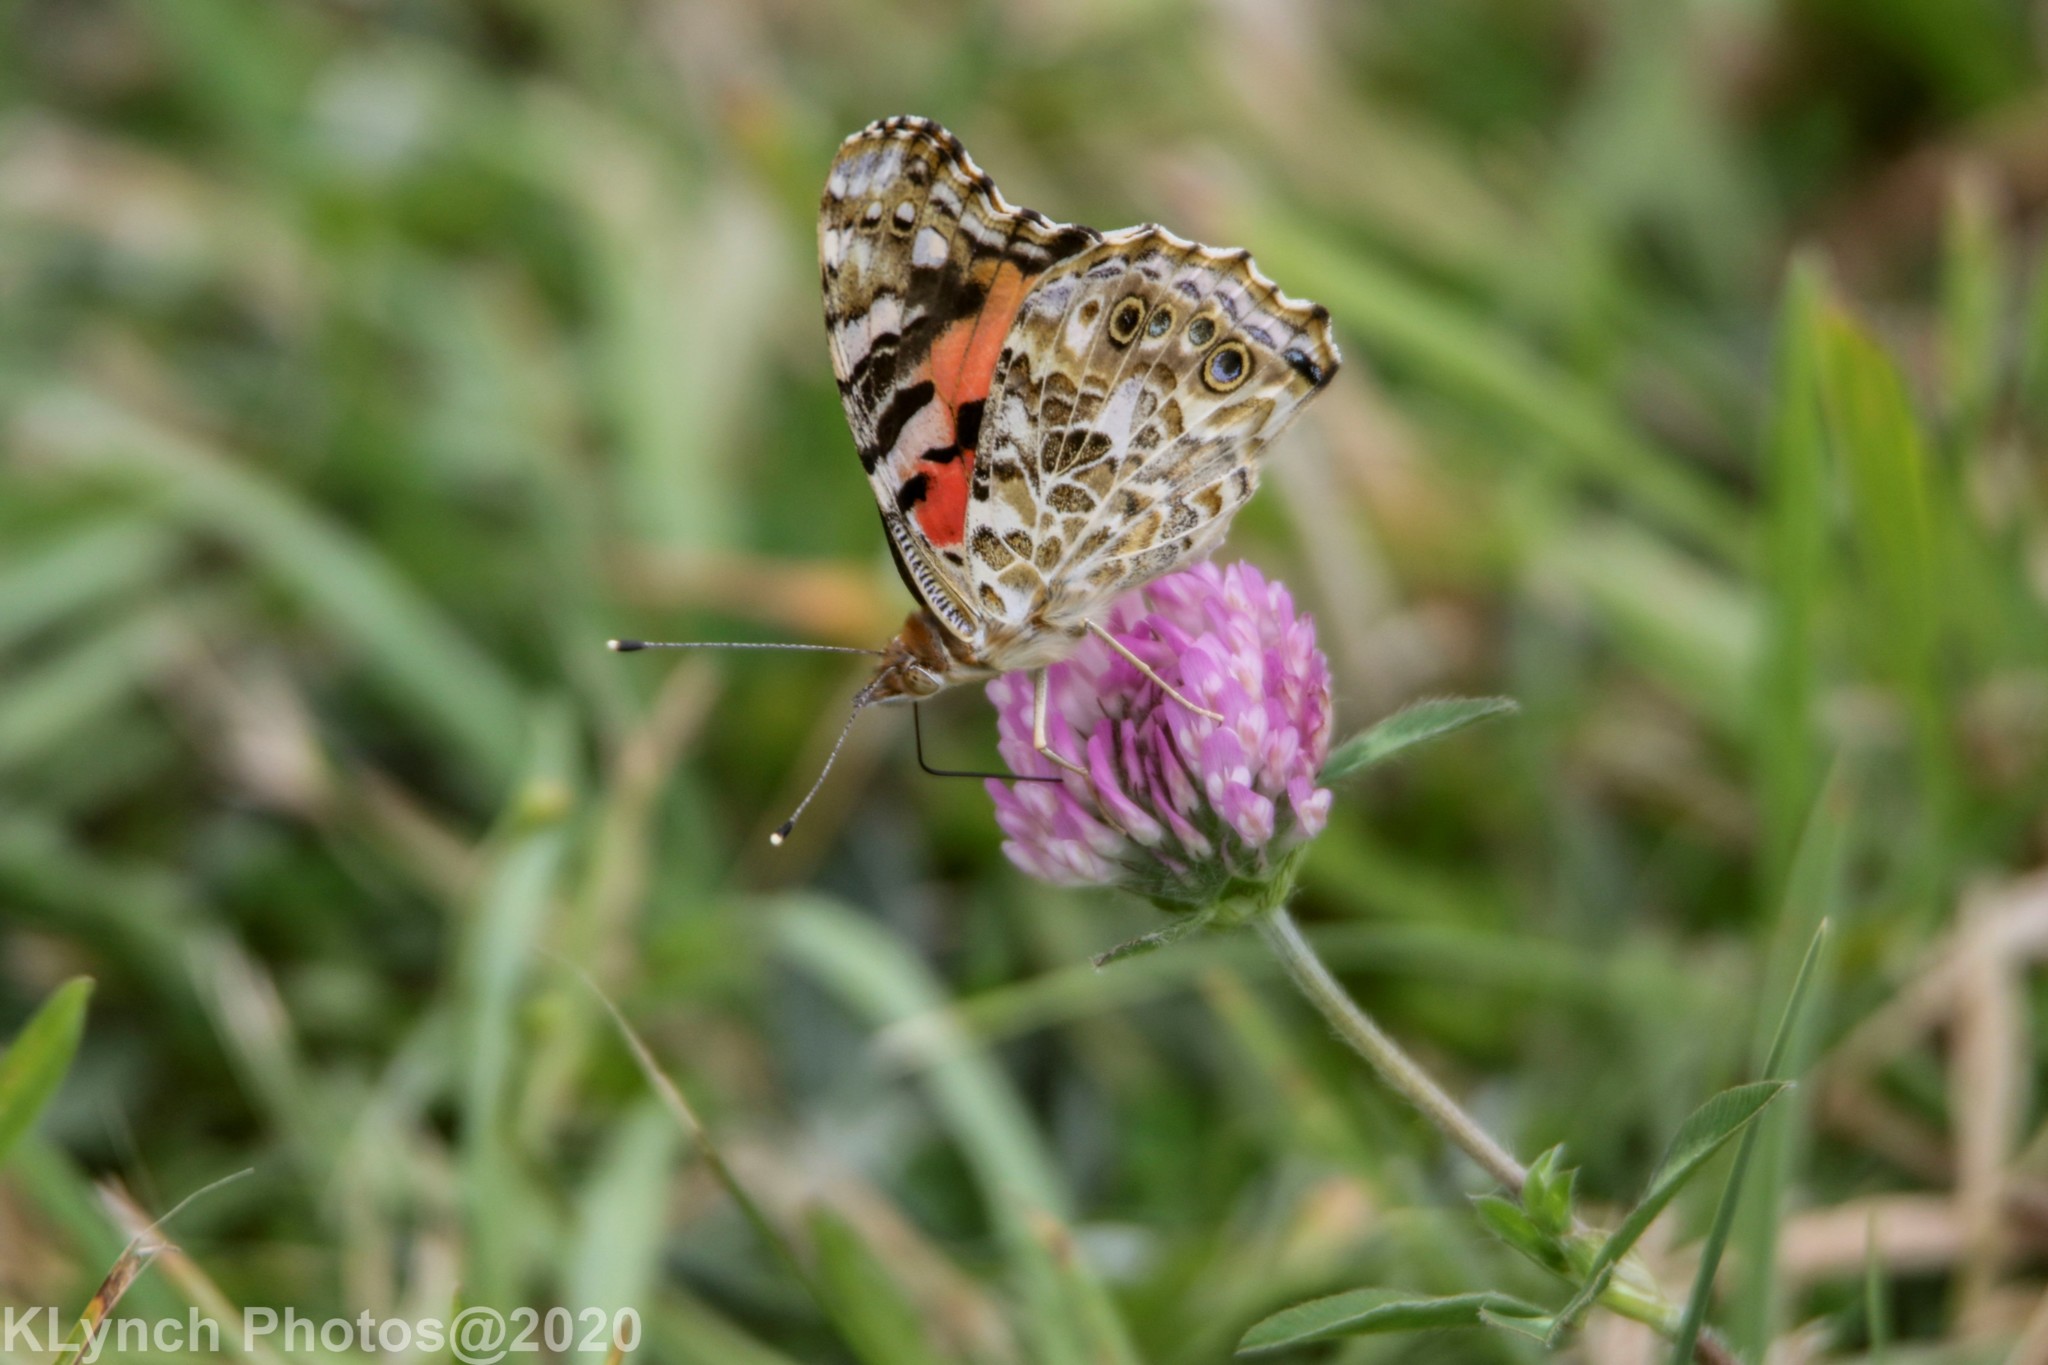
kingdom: Animalia
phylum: Arthropoda
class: Insecta
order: Lepidoptera
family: Nymphalidae
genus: Vanessa
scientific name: Vanessa cardui
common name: Painted lady
